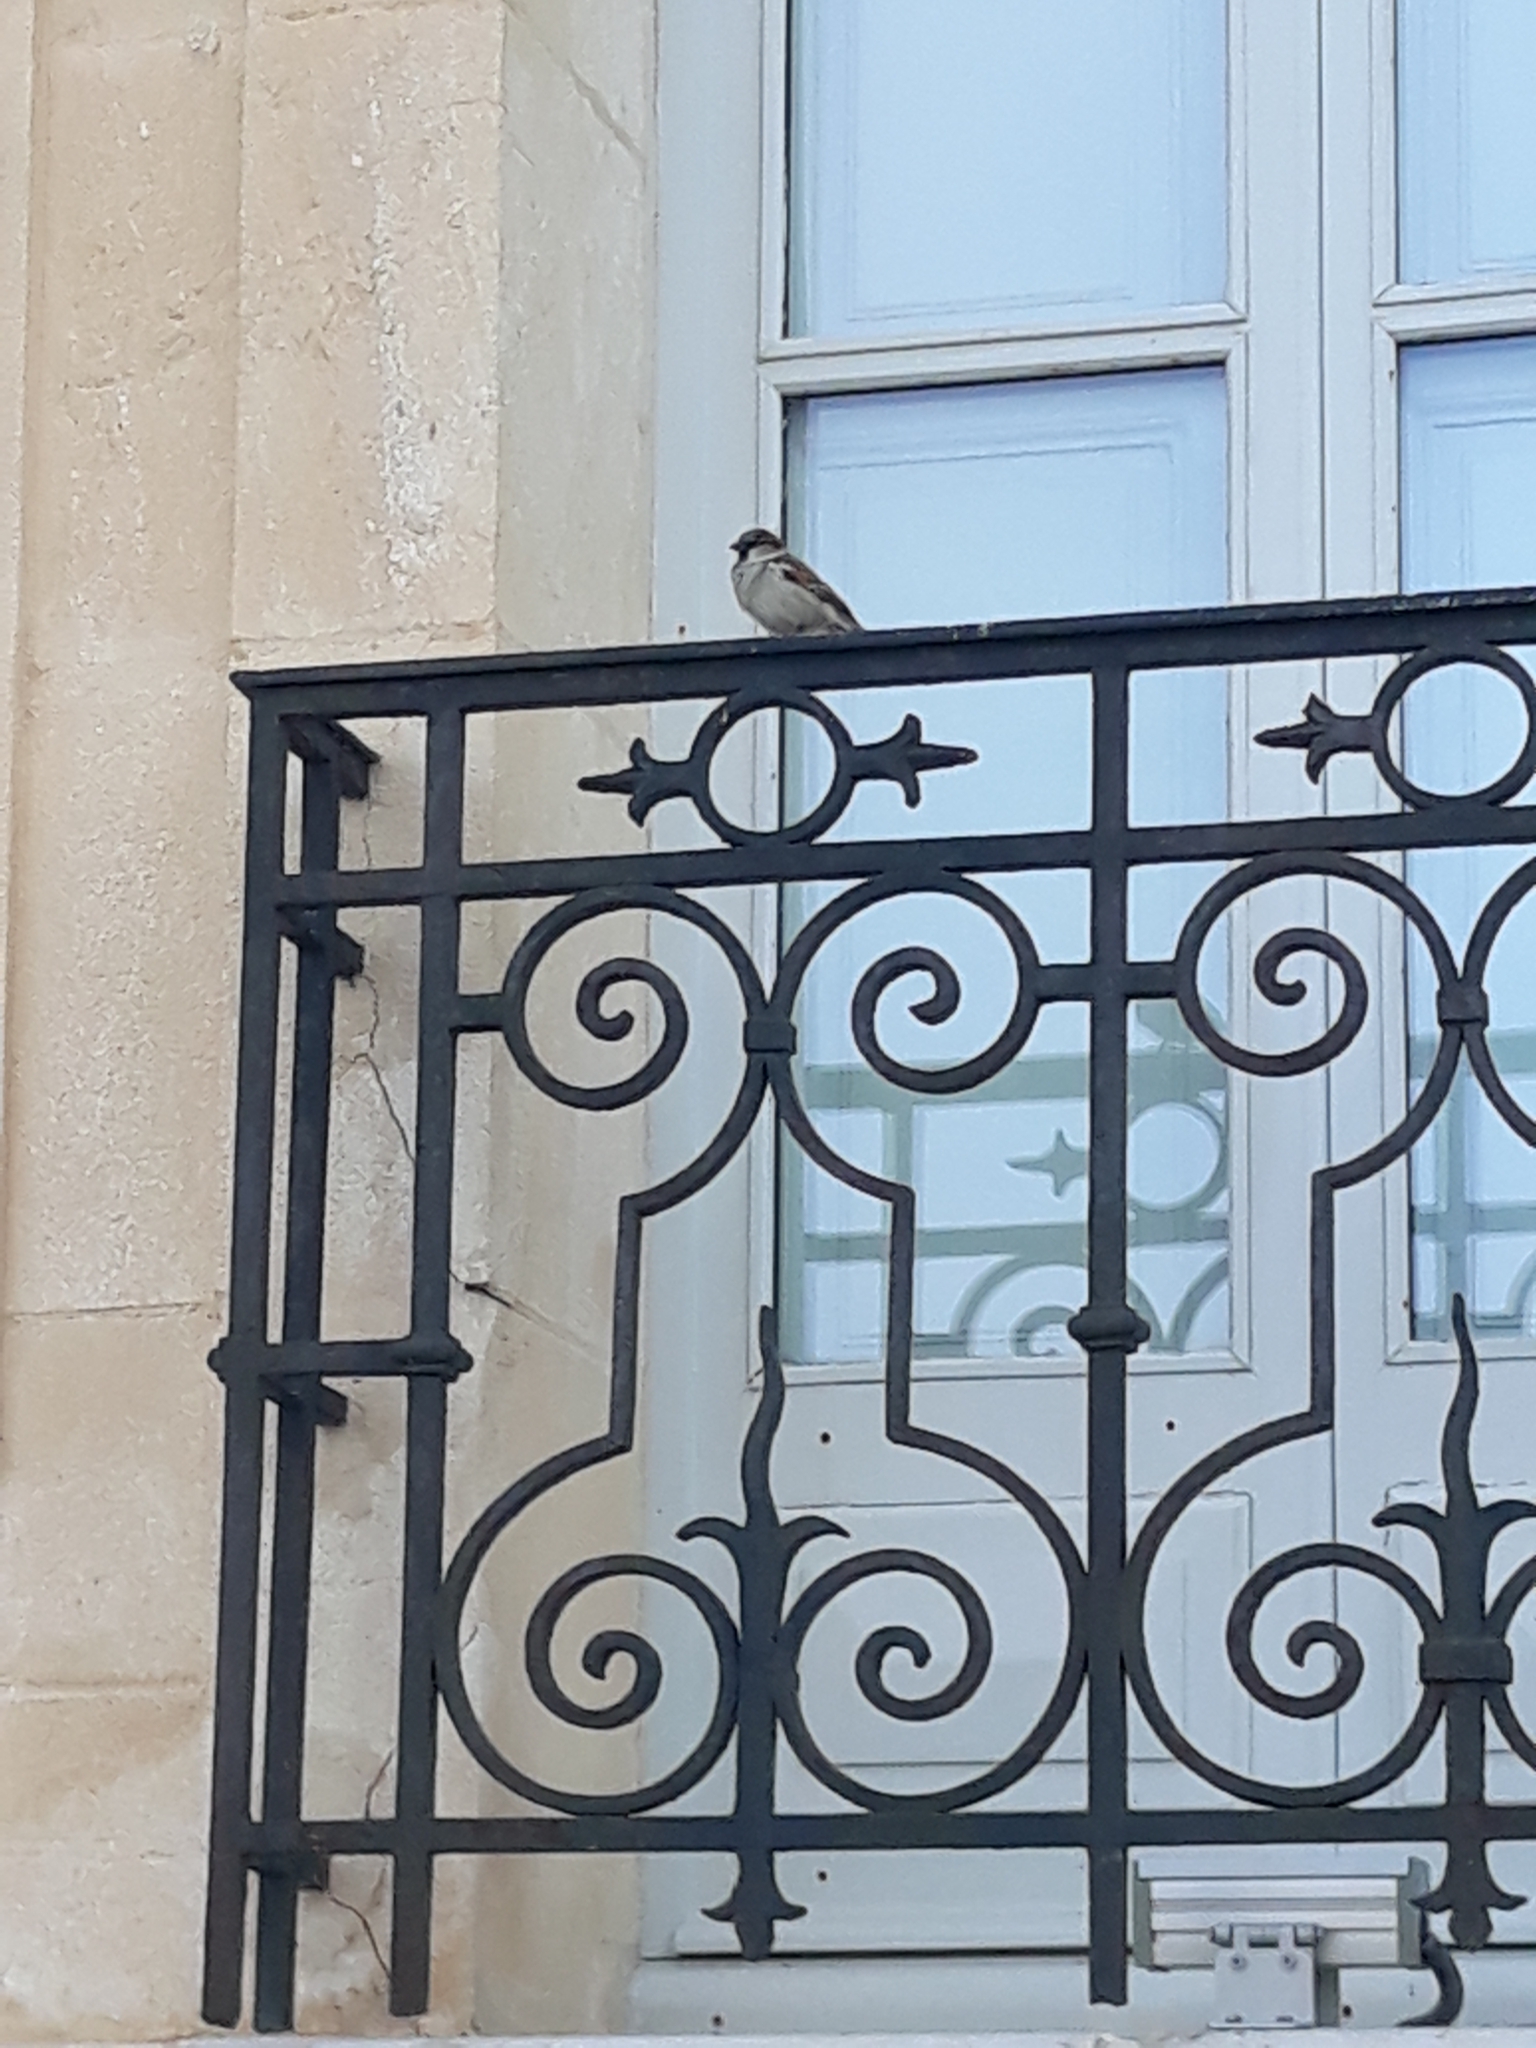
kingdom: Animalia
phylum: Chordata
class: Aves
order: Passeriformes
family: Passeridae
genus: Passer
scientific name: Passer domesticus
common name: House sparrow
